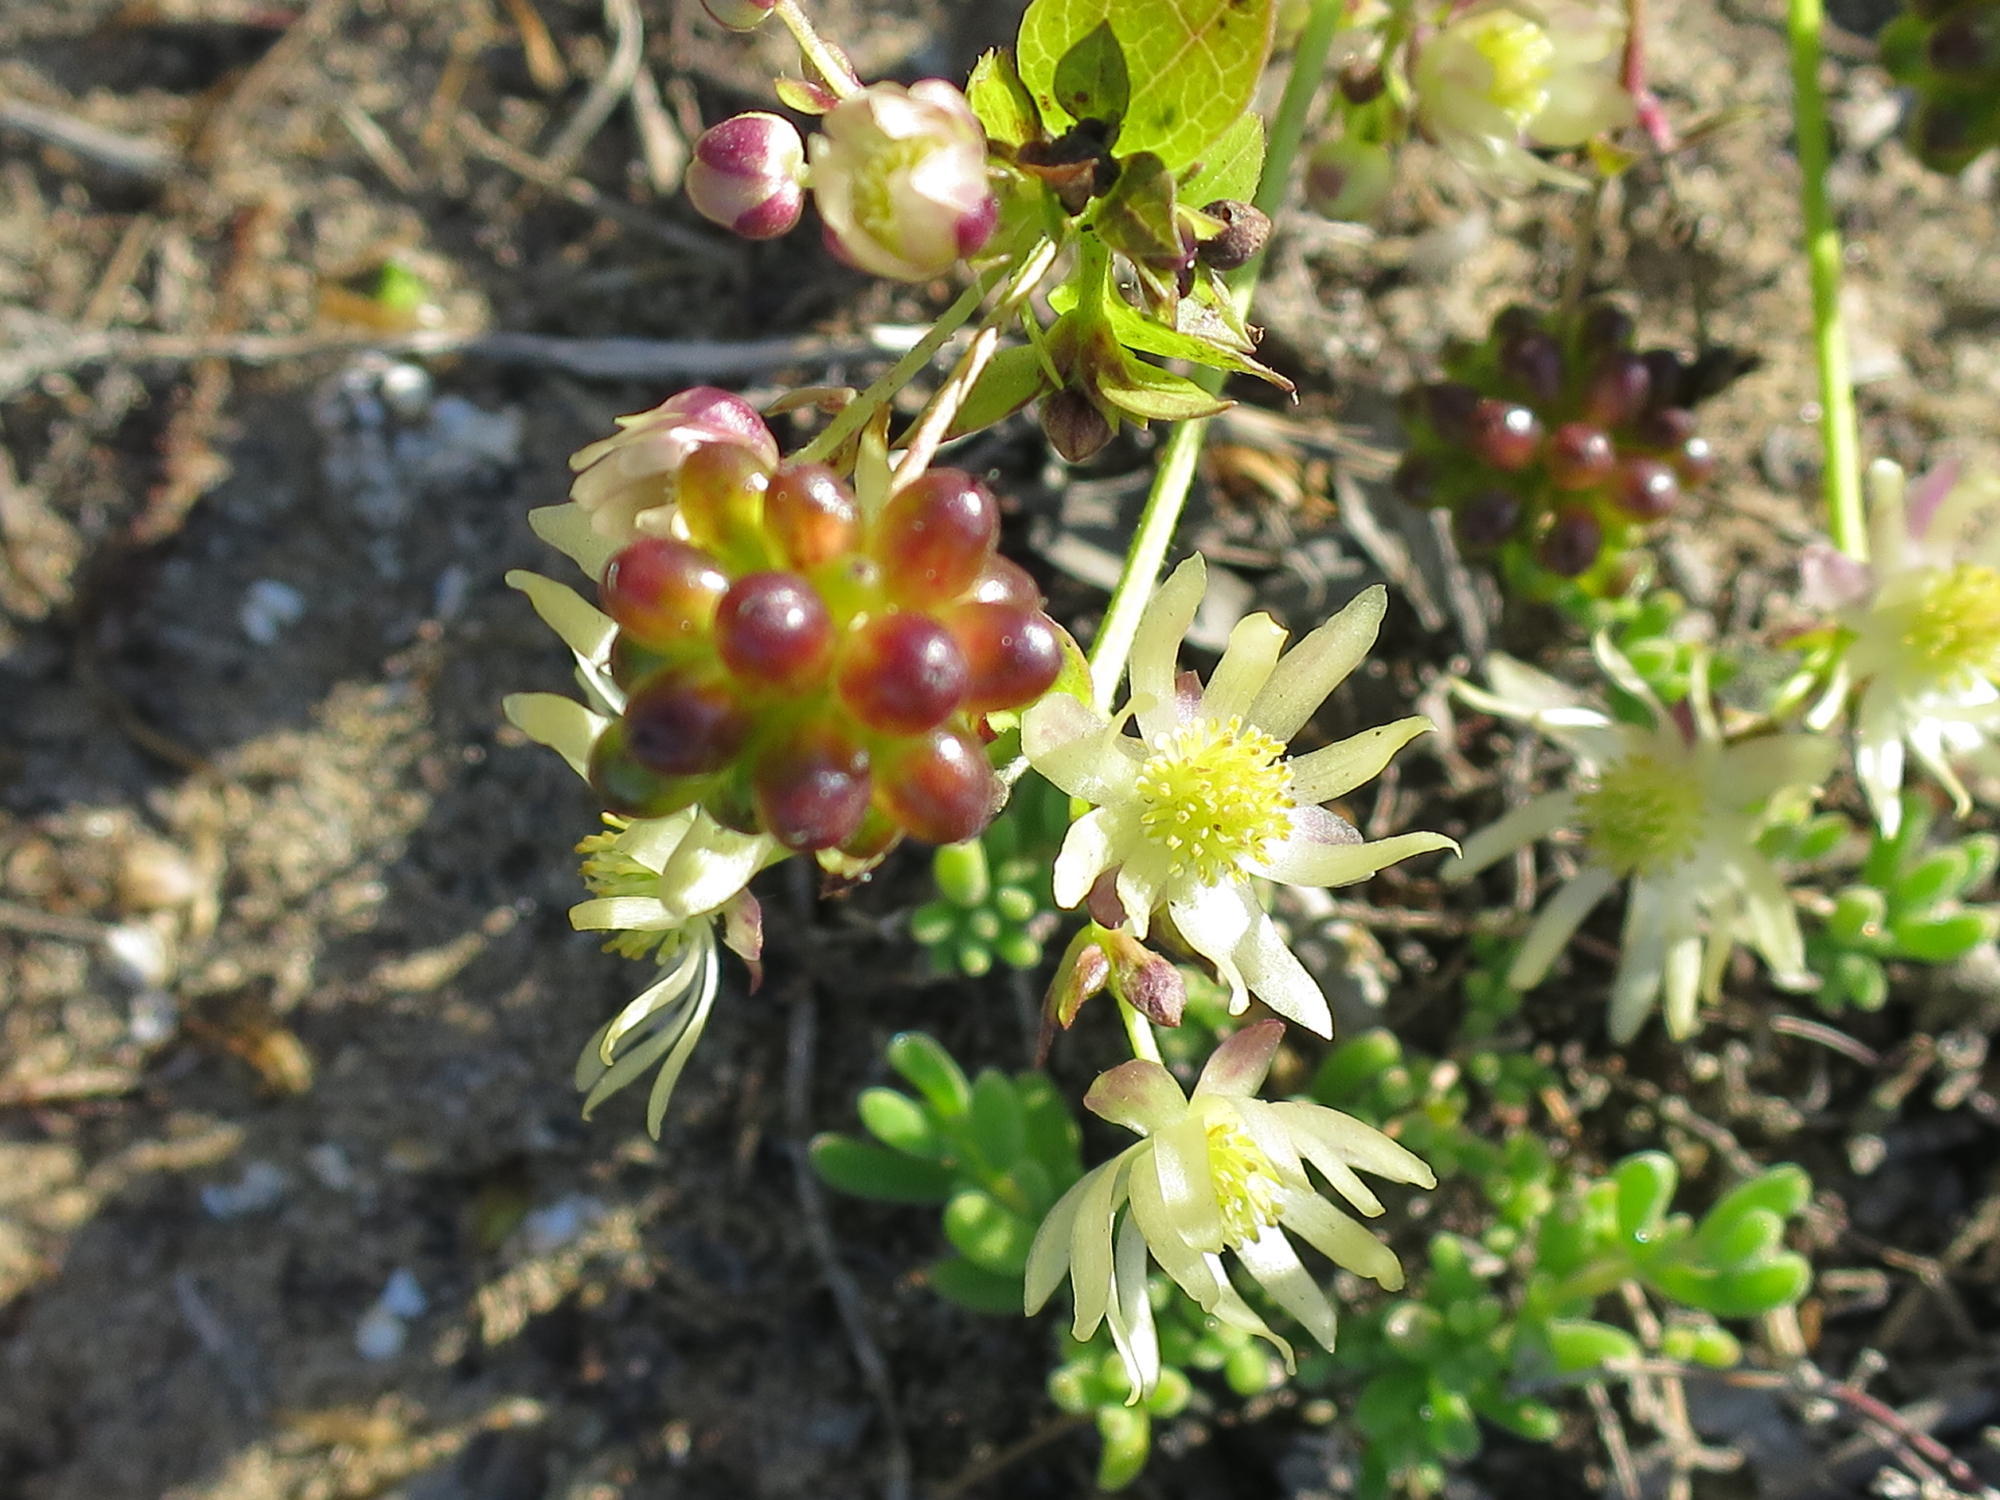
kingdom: Plantae
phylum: Tracheophyta
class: Magnoliopsida
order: Ranunculales
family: Ranunculaceae
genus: Knowltonia
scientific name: Knowltonia vesicatoria
